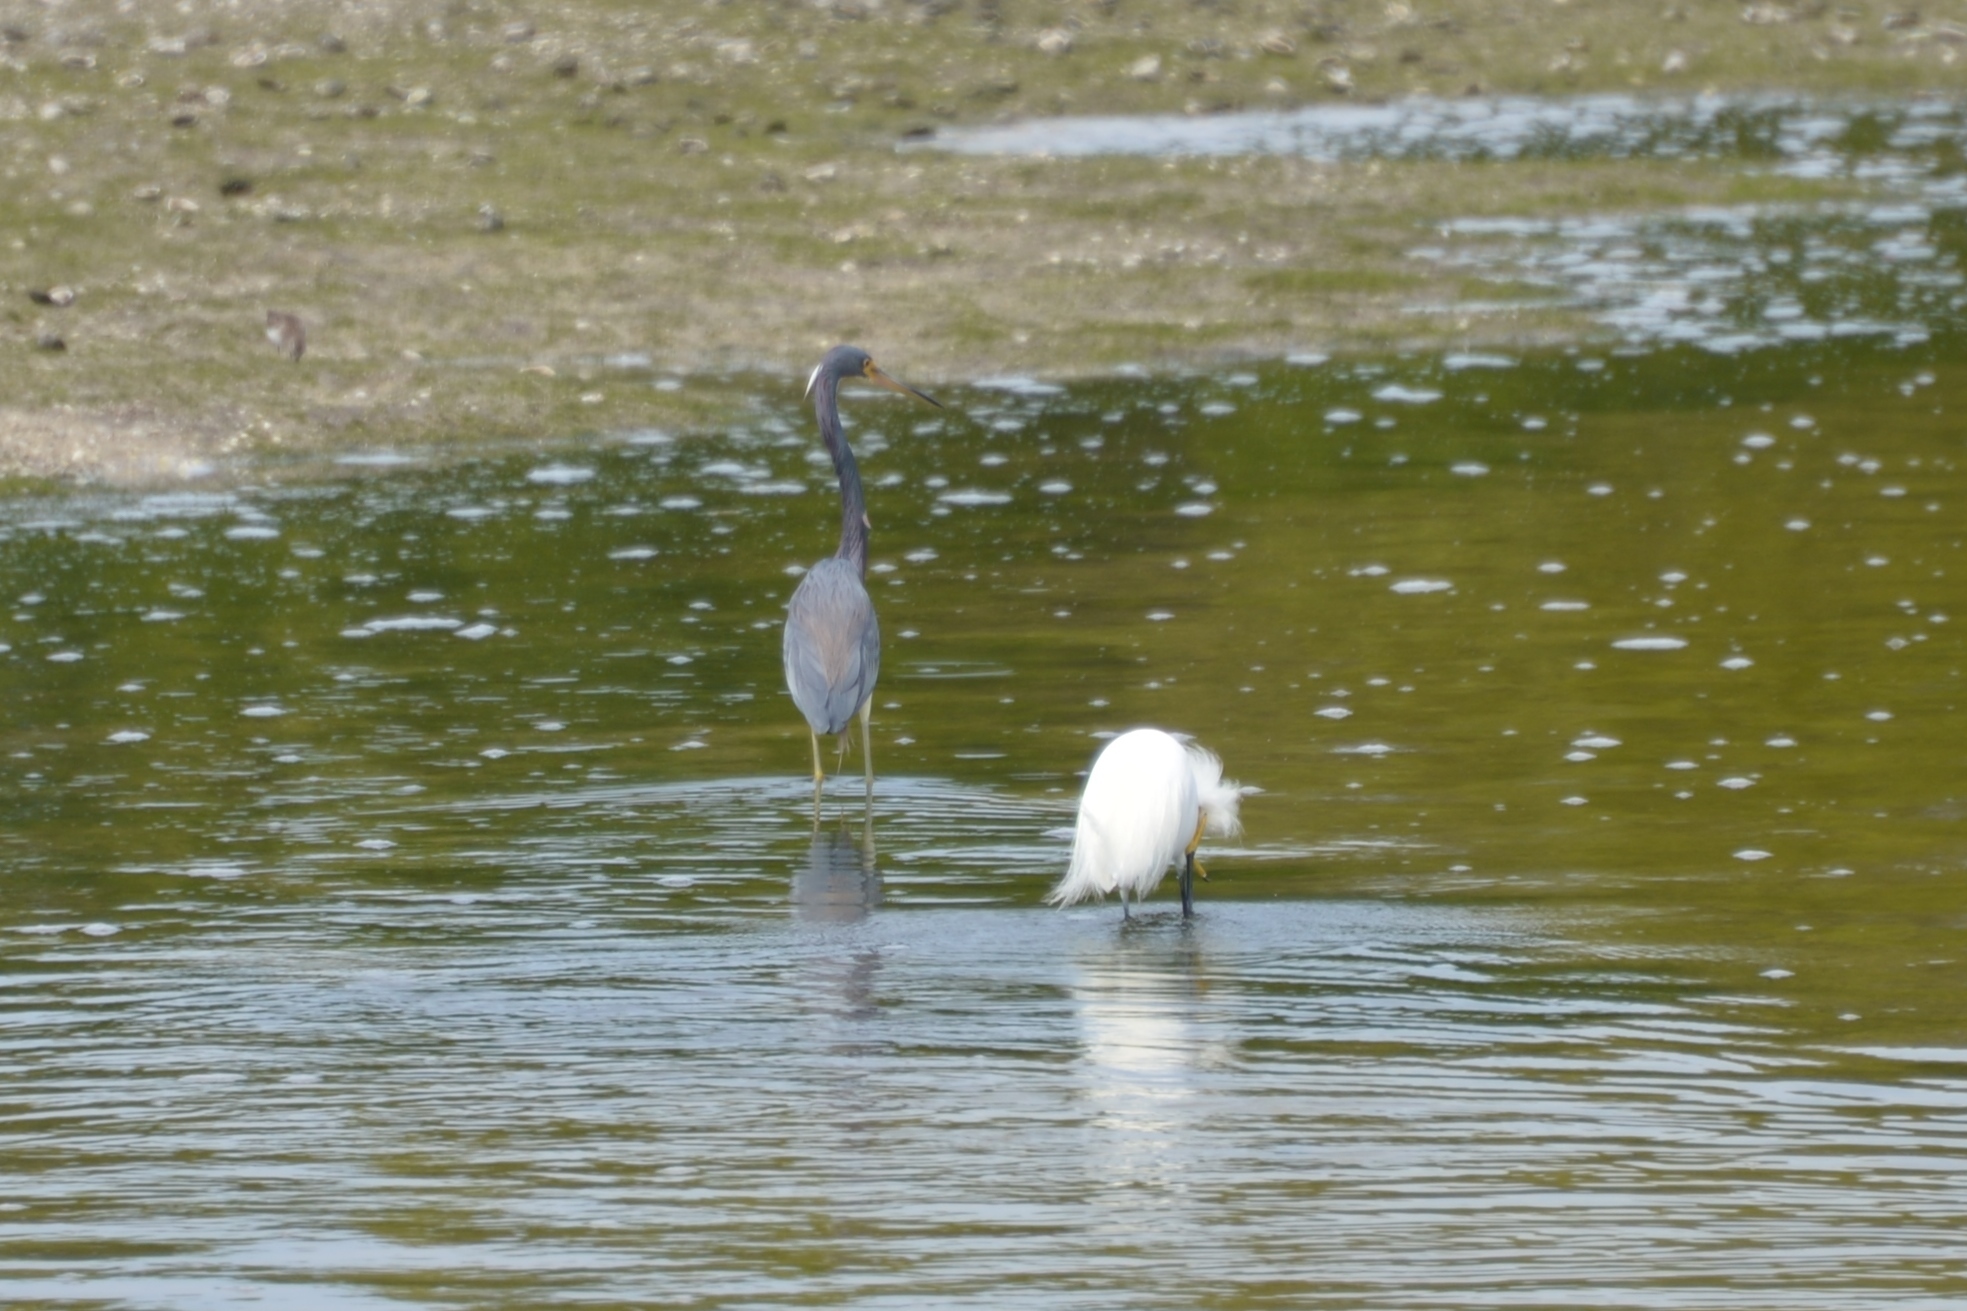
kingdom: Animalia
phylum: Chordata
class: Aves
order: Pelecaniformes
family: Ardeidae
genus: Egretta
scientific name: Egretta tricolor
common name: Tricolored heron
